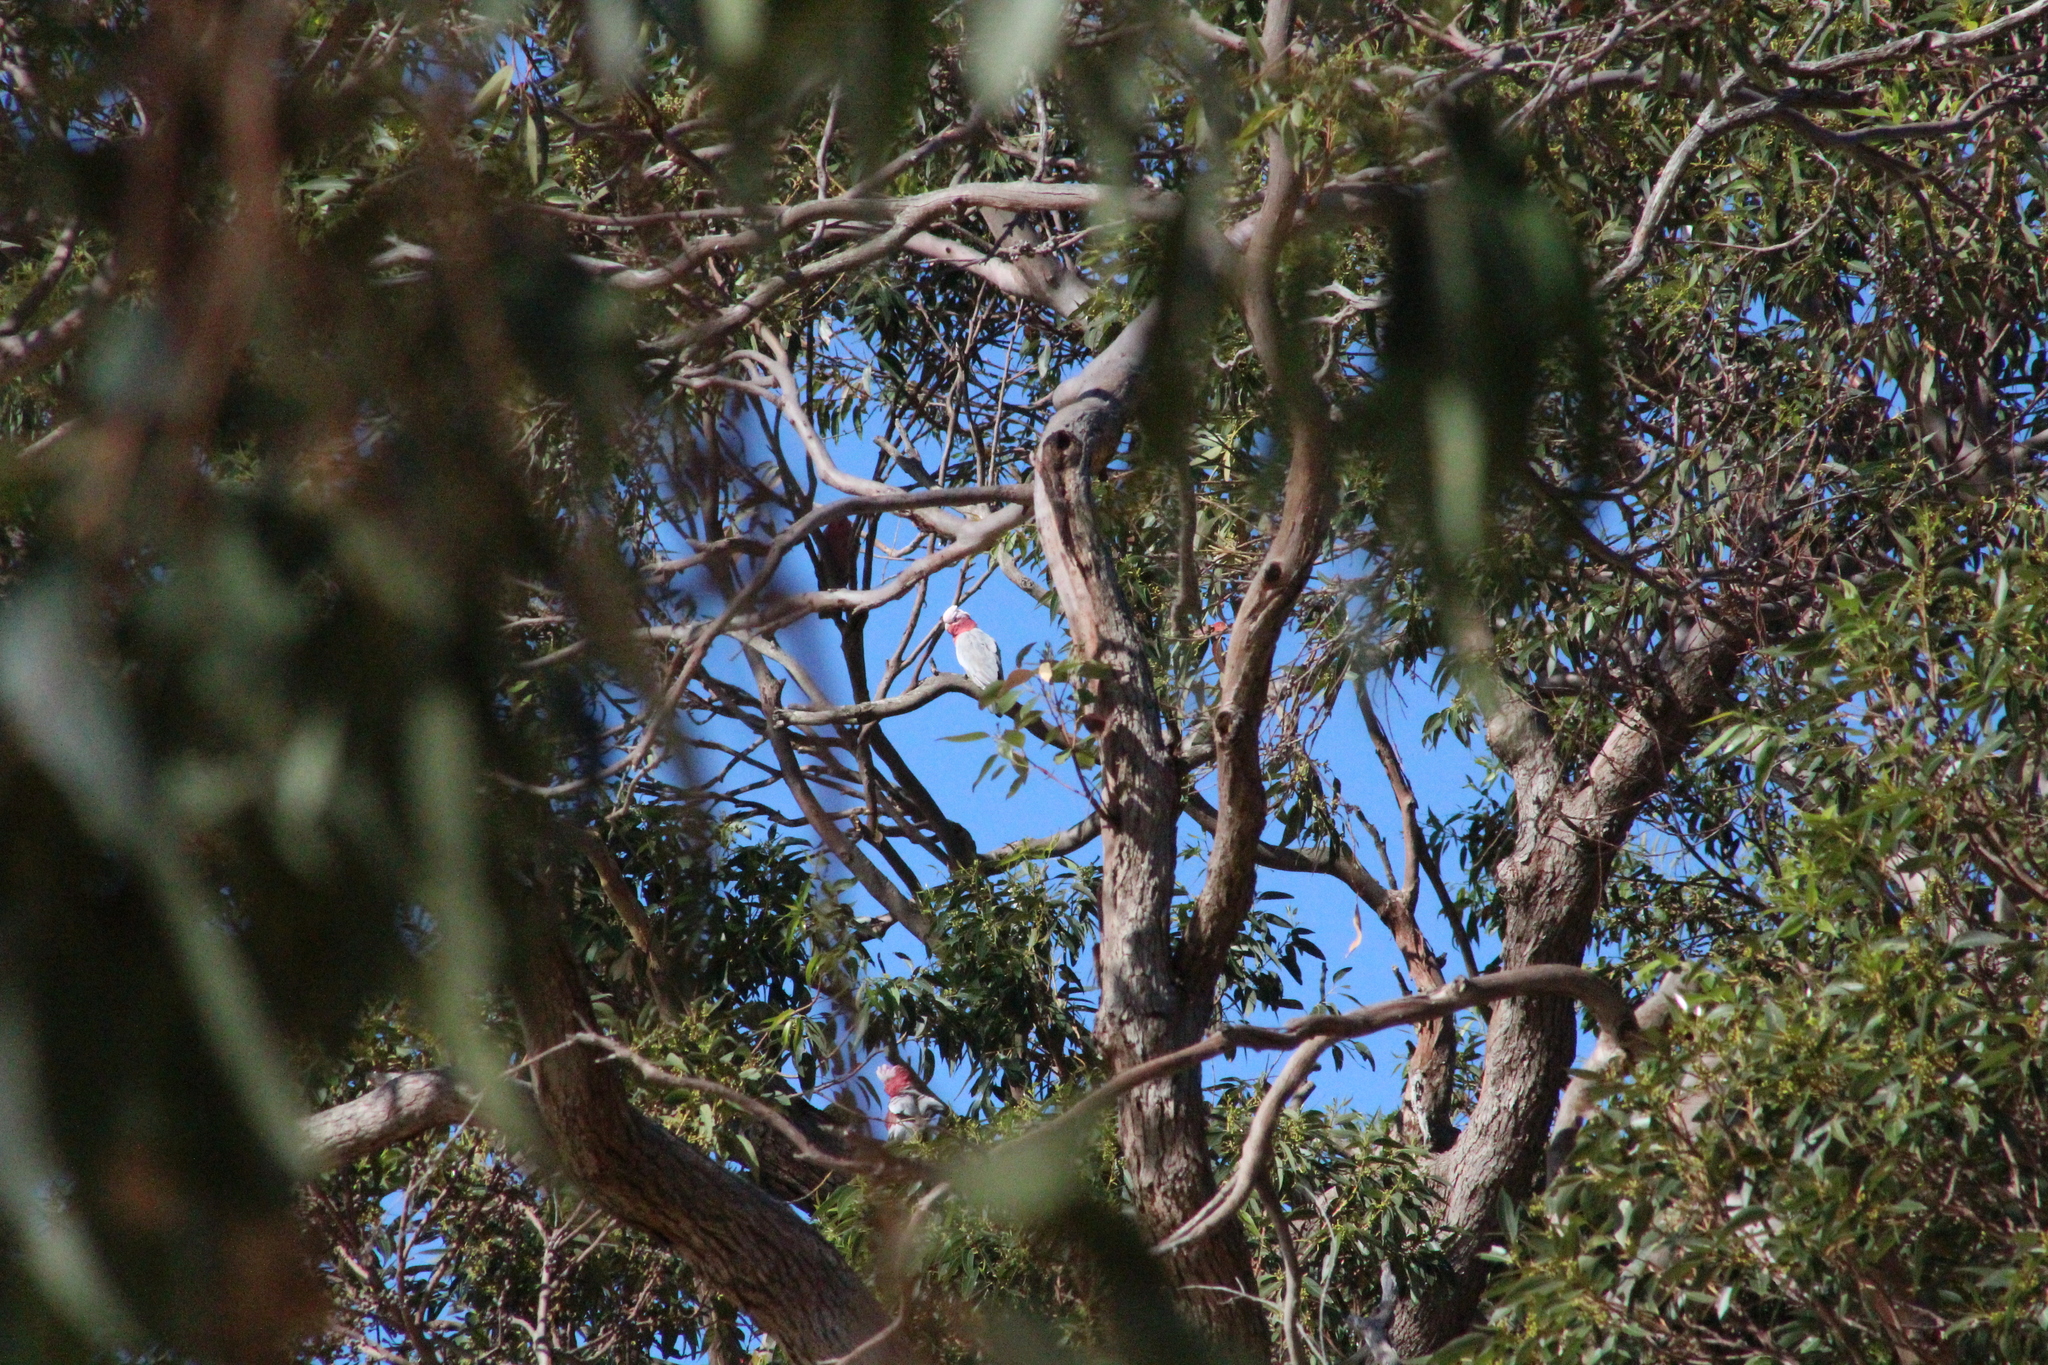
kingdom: Animalia
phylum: Chordata
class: Aves
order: Psittaciformes
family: Psittacidae
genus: Eolophus
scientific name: Eolophus roseicapilla
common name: Galah
